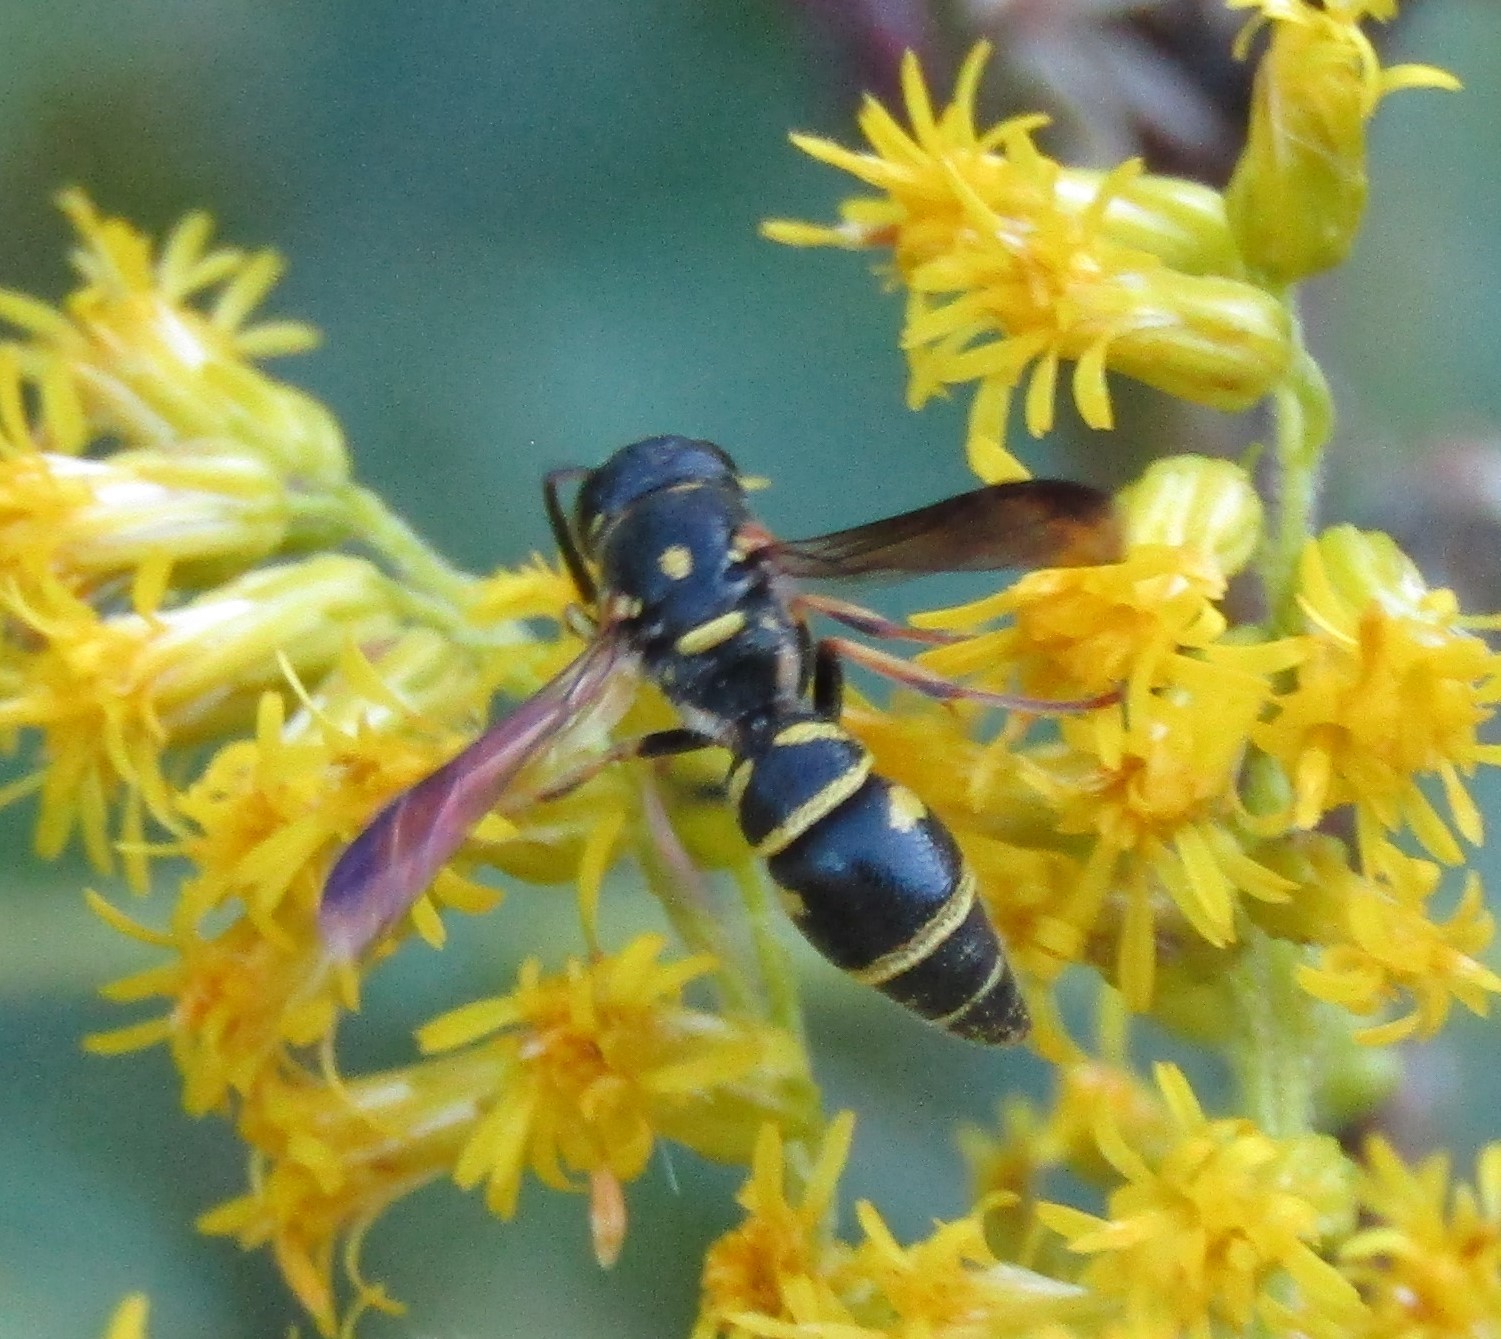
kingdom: Animalia
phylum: Arthropoda
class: Insecta
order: Hymenoptera
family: Eumenidae
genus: Parancistrocerus
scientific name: Parancistrocerus
